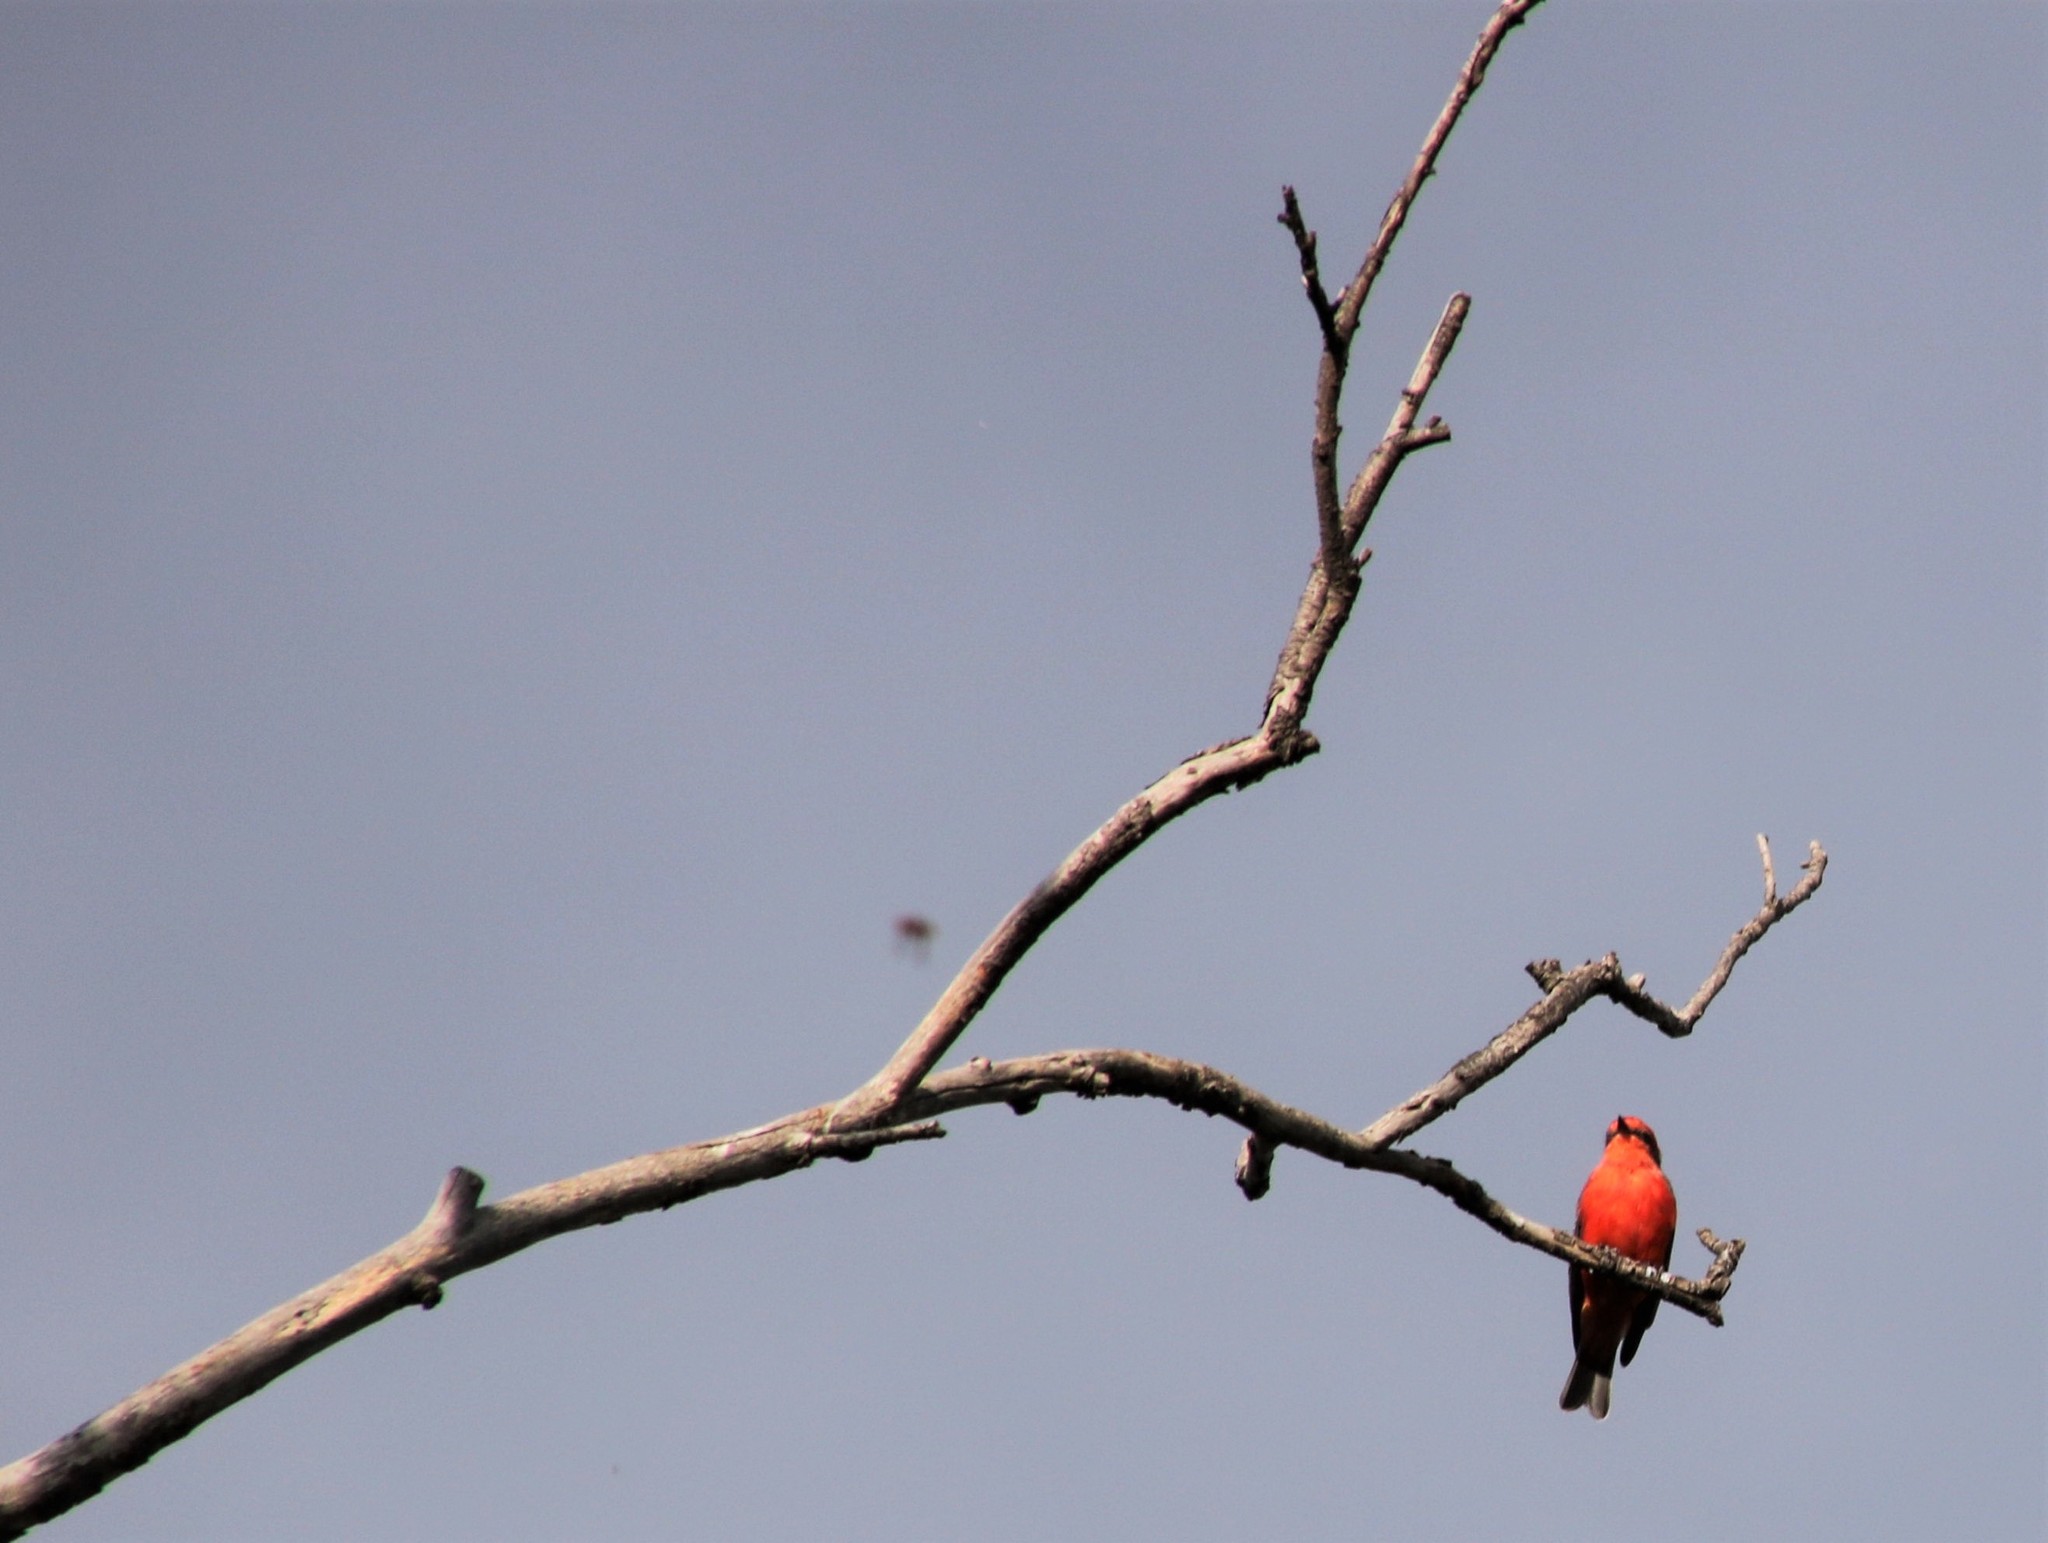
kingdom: Animalia
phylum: Chordata
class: Aves
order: Passeriformes
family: Tyrannidae
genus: Pyrocephalus
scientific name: Pyrocephalus rubinus
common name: Vermilion flycatcher
